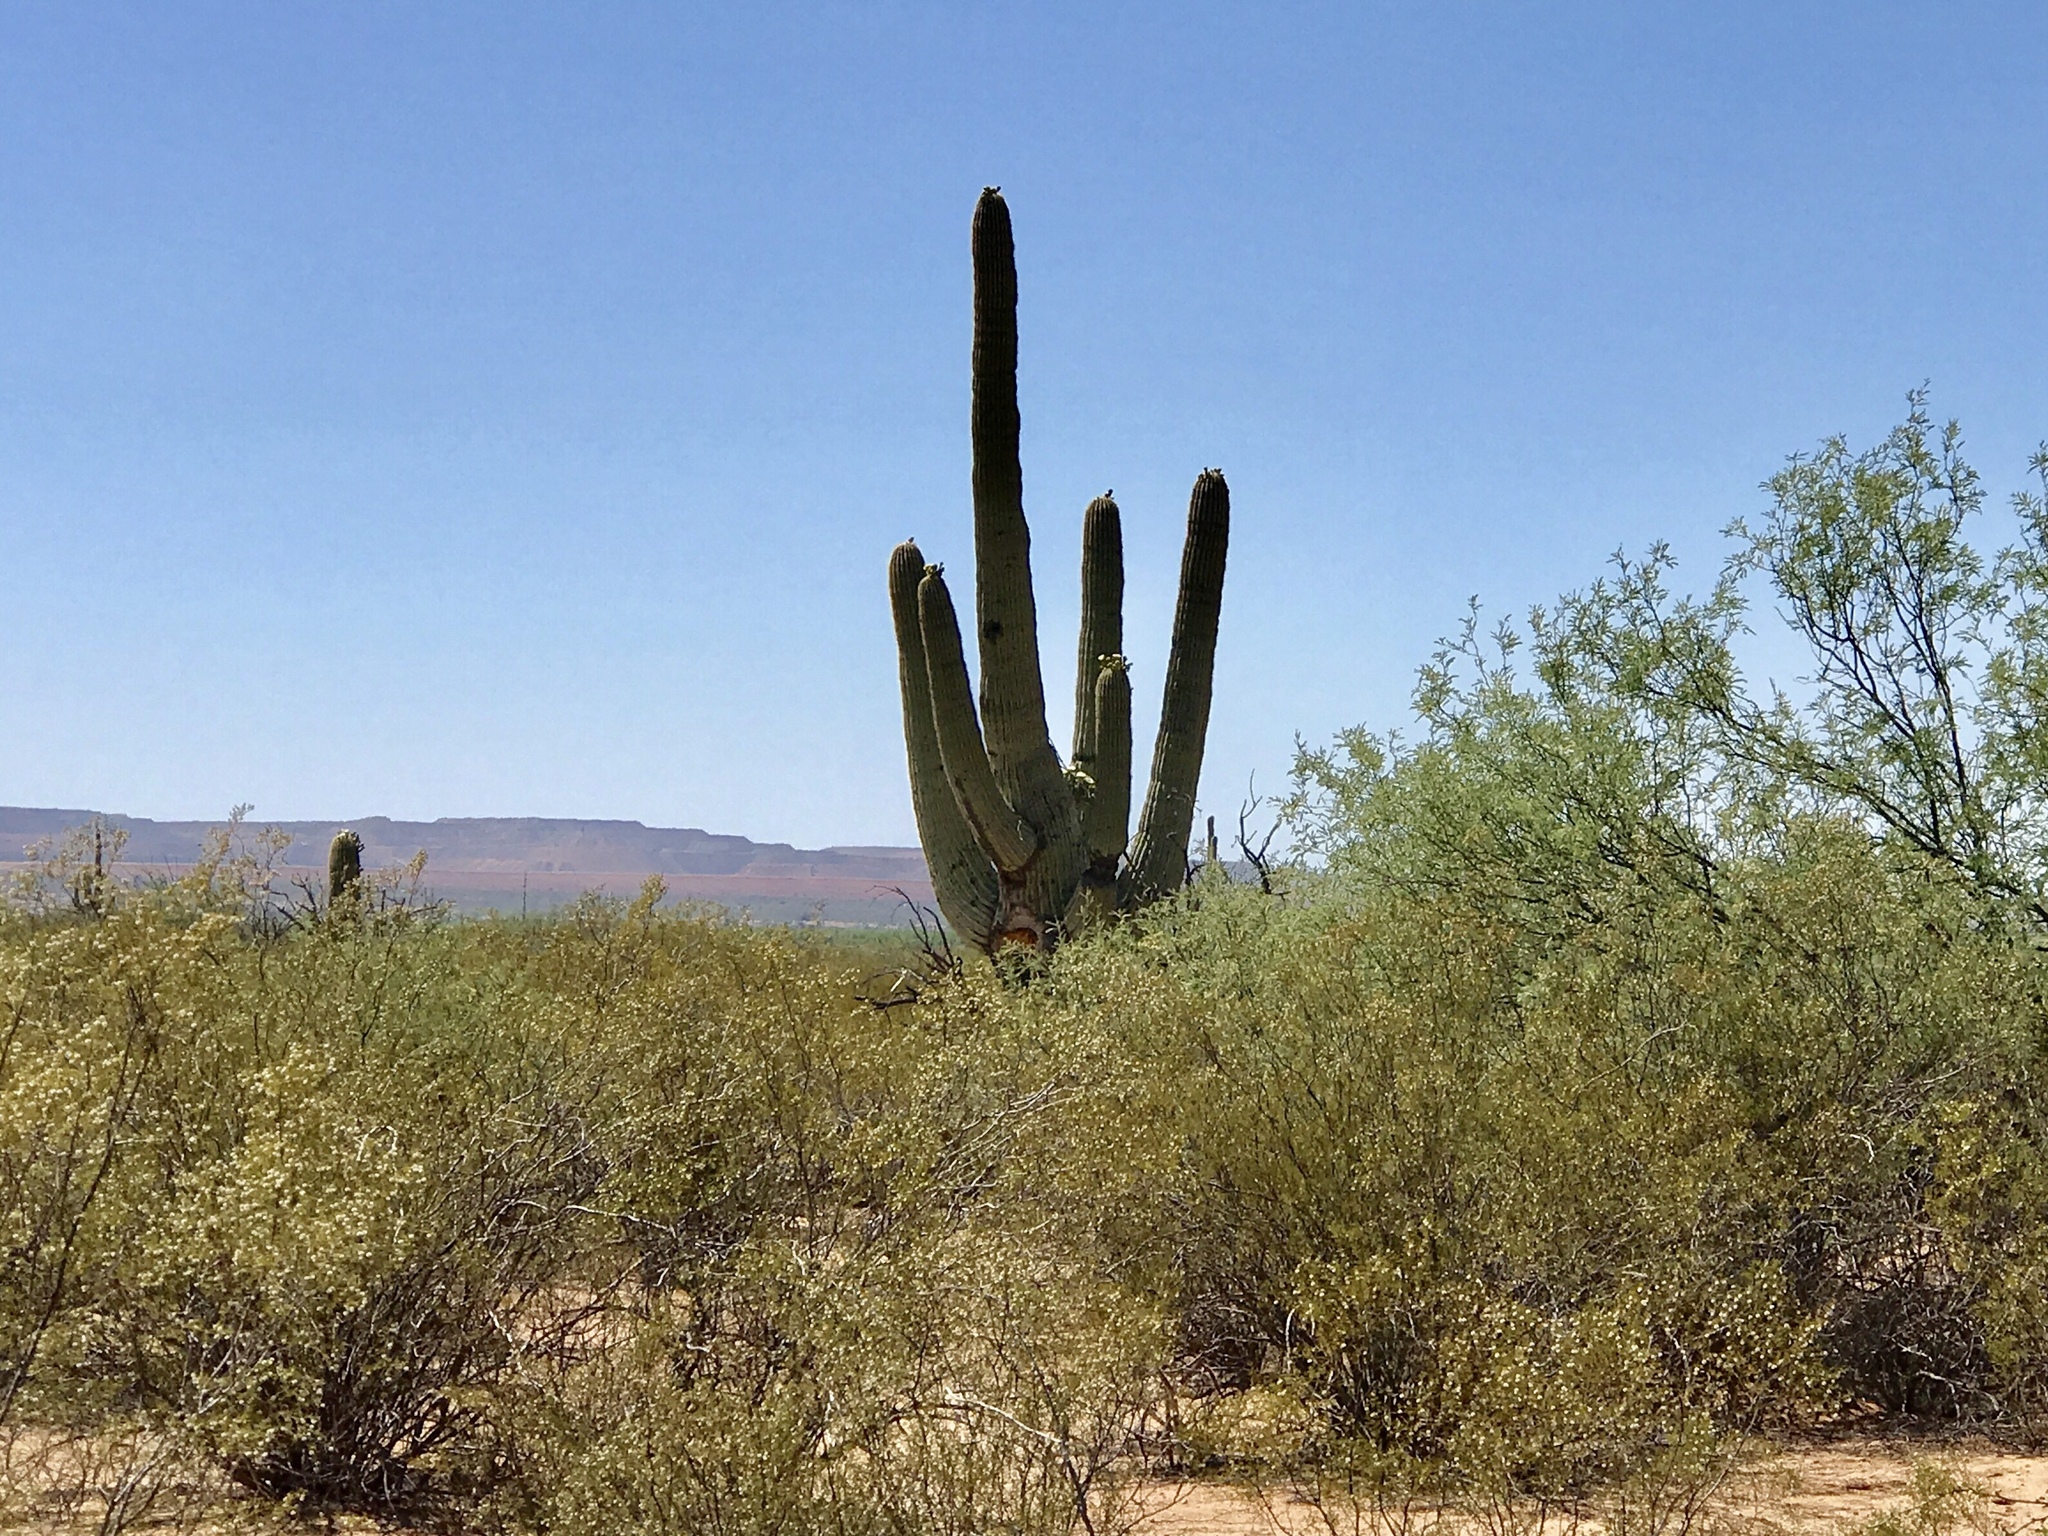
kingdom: Plantae
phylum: Tracheophyta
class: Magnoliopsida
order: Caryophyllales
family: Cactaceae
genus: Carnegiea
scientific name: Carnegiea gigantea
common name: Saguaro
